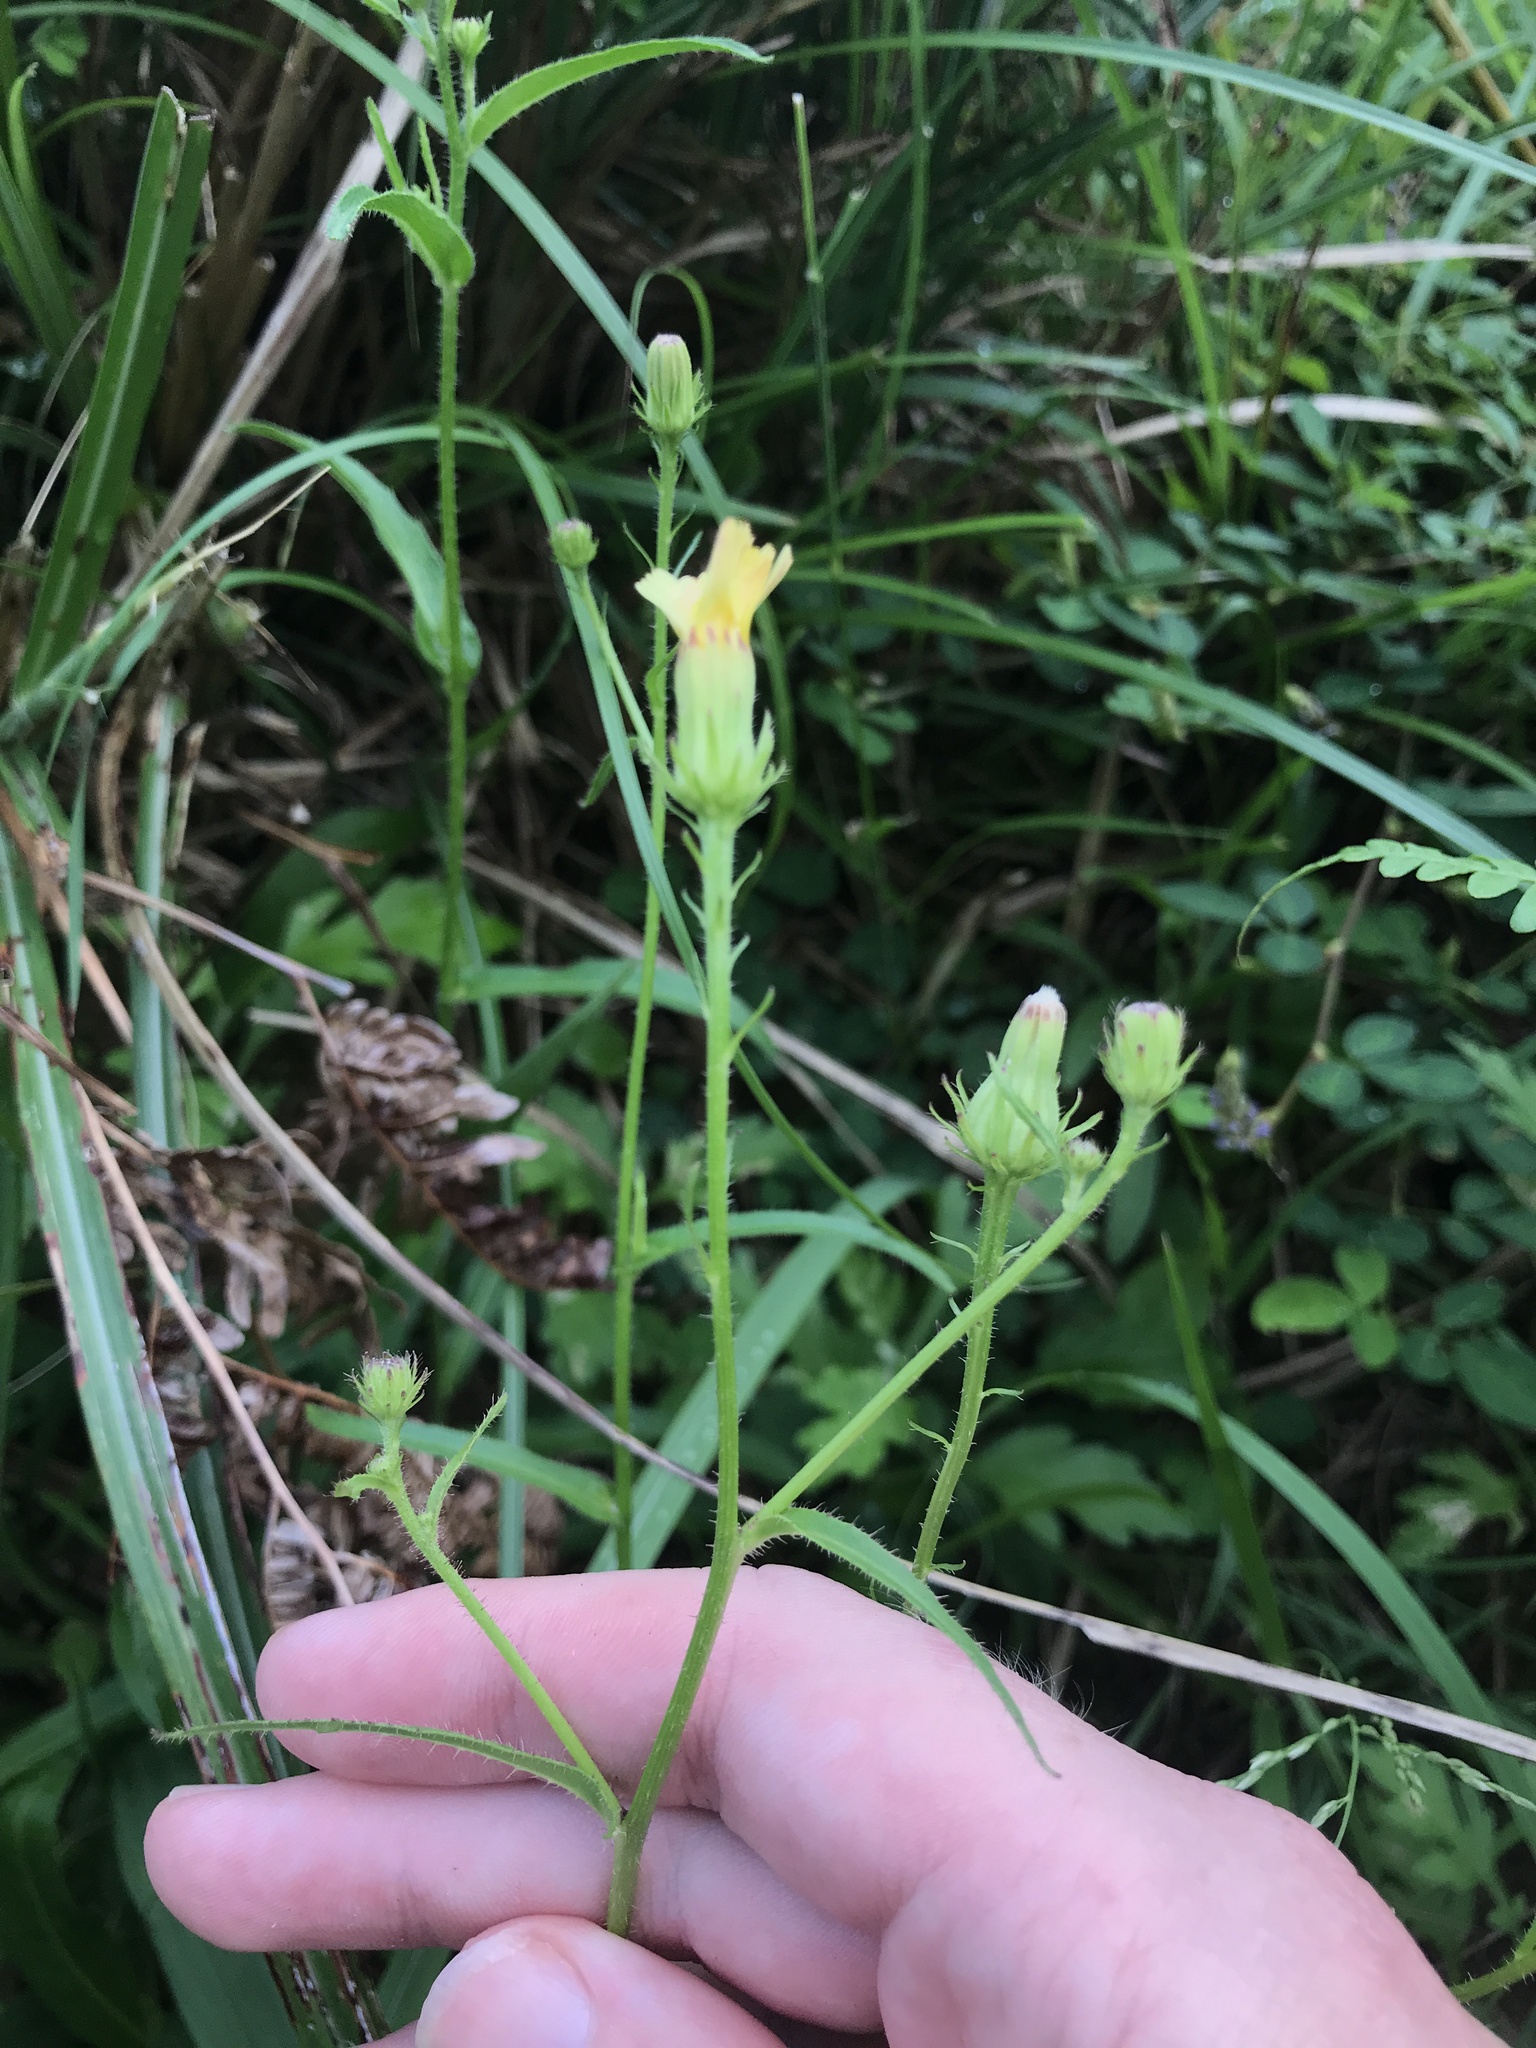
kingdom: Plantae
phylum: Tracheophyta
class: Magnoliopsida
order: Asterales
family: Asteraceae
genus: Picris
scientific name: Picris japonica
